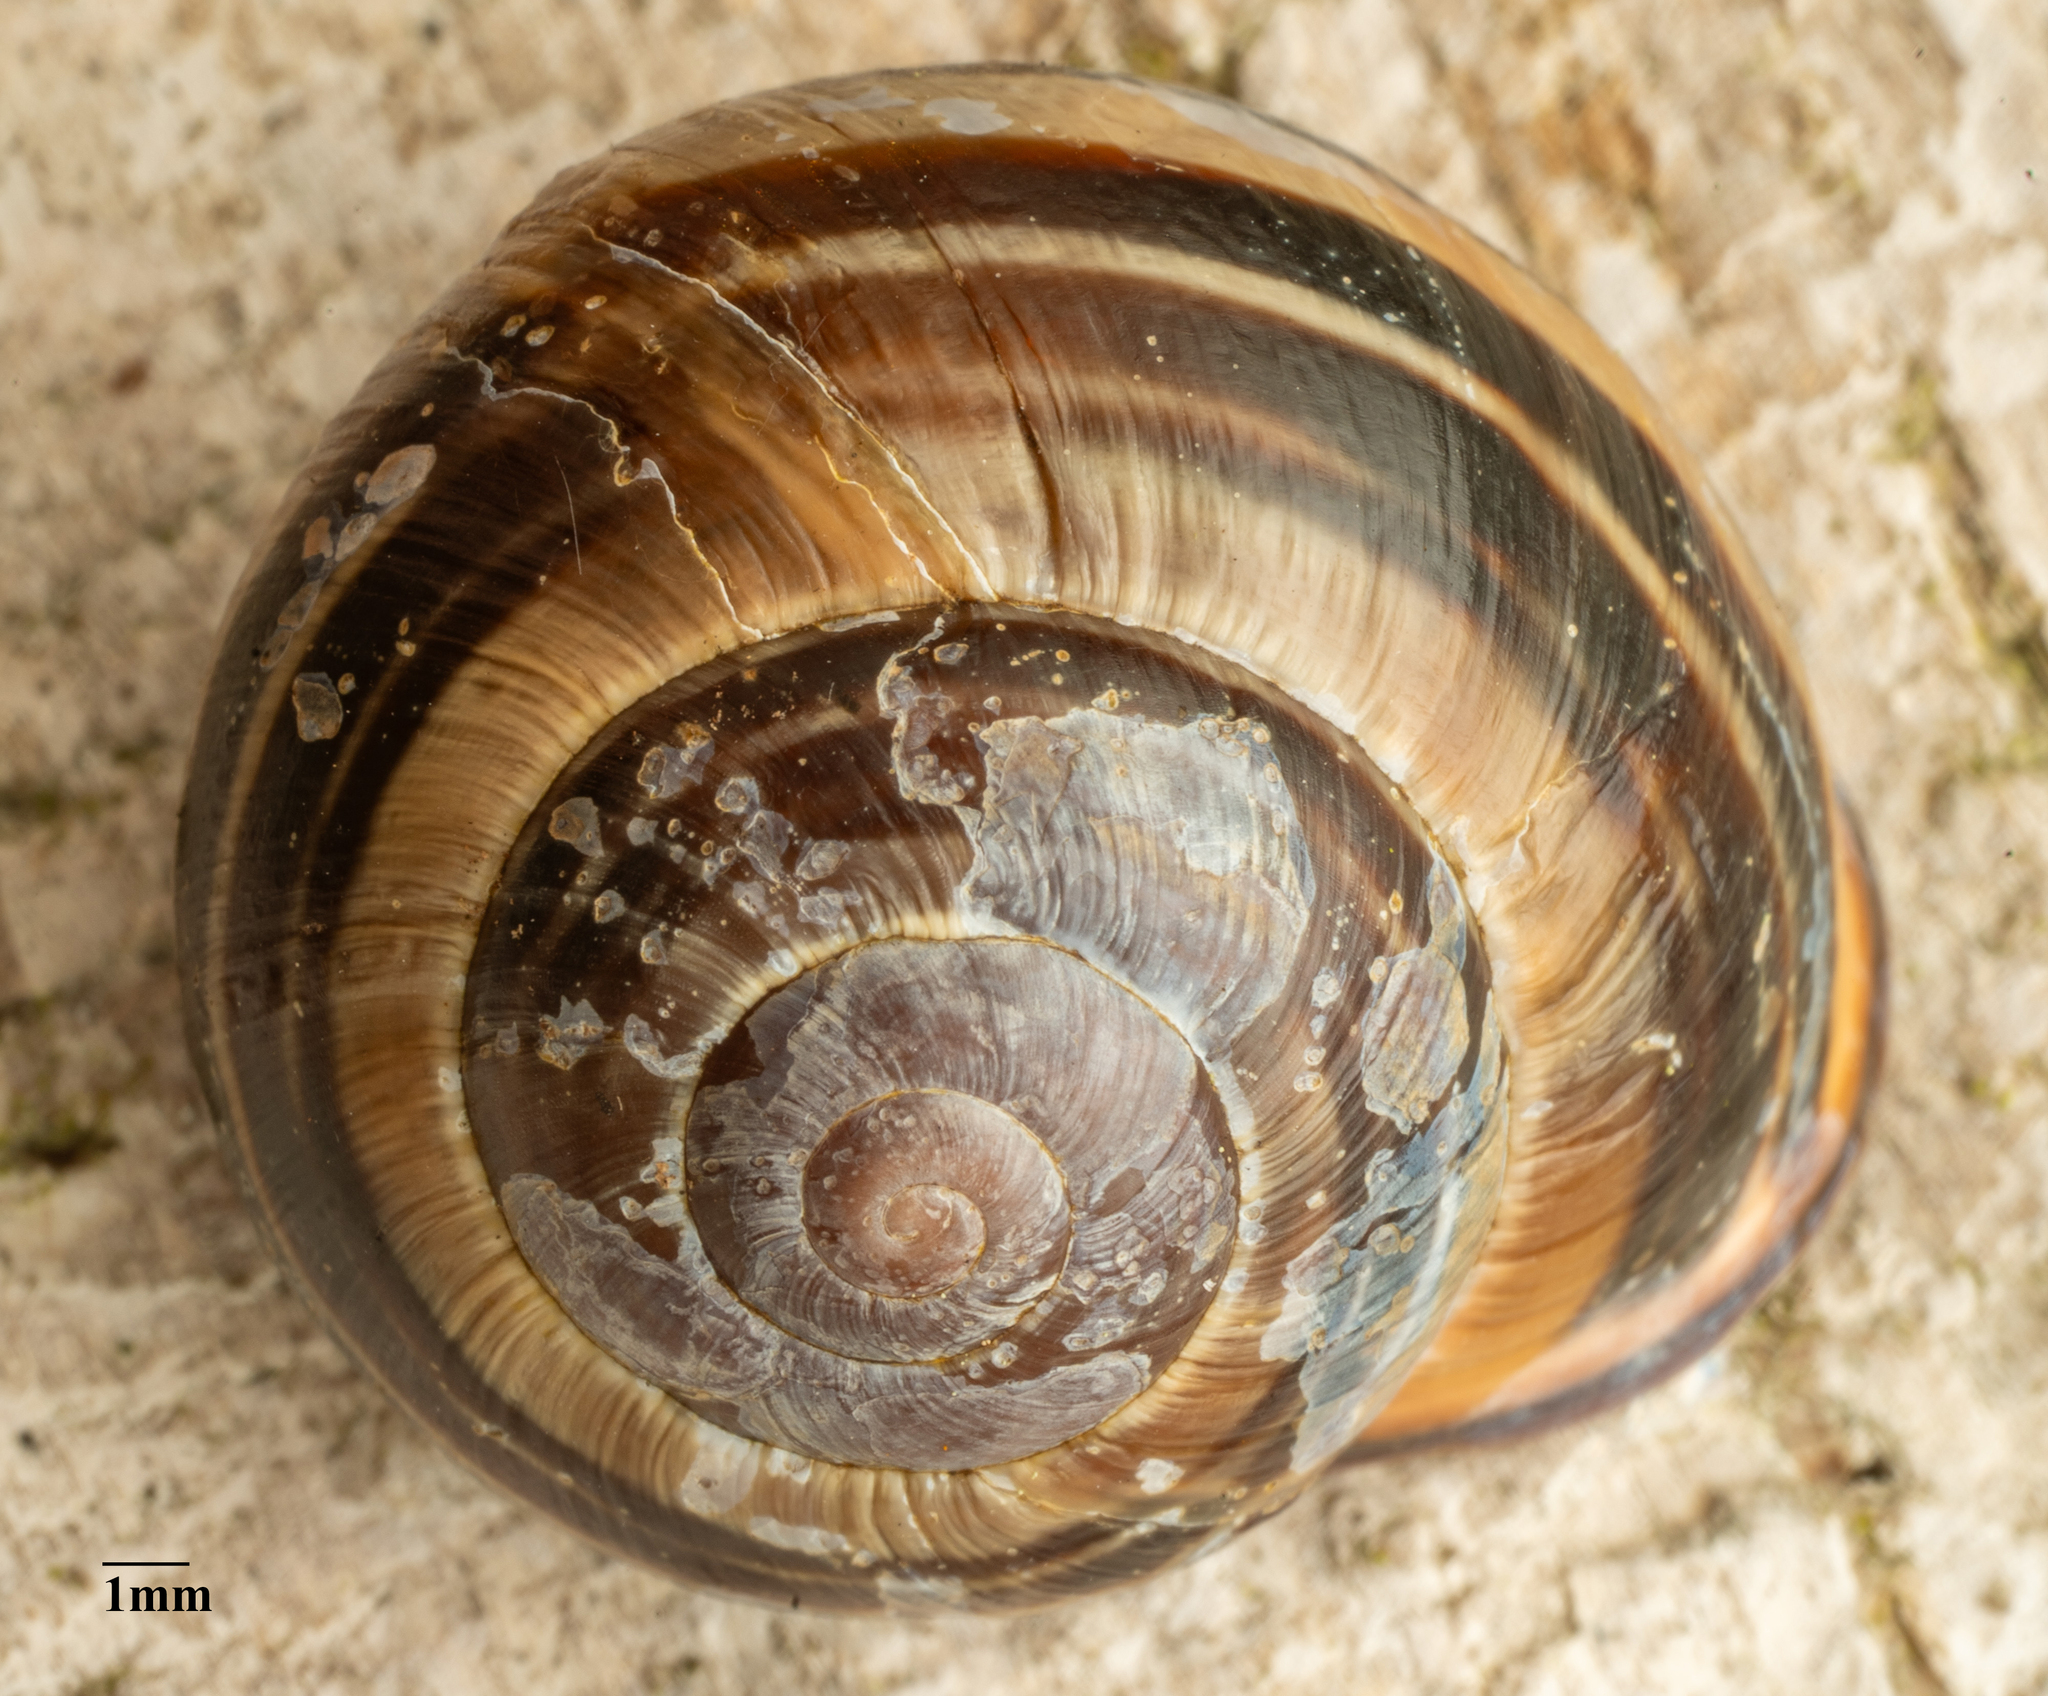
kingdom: Animalia
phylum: Mollusca
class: Gastropoda
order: Stylommatophora
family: Helicidae
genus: Cepaea
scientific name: Cepaea nemoralis
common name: Grovesnail
